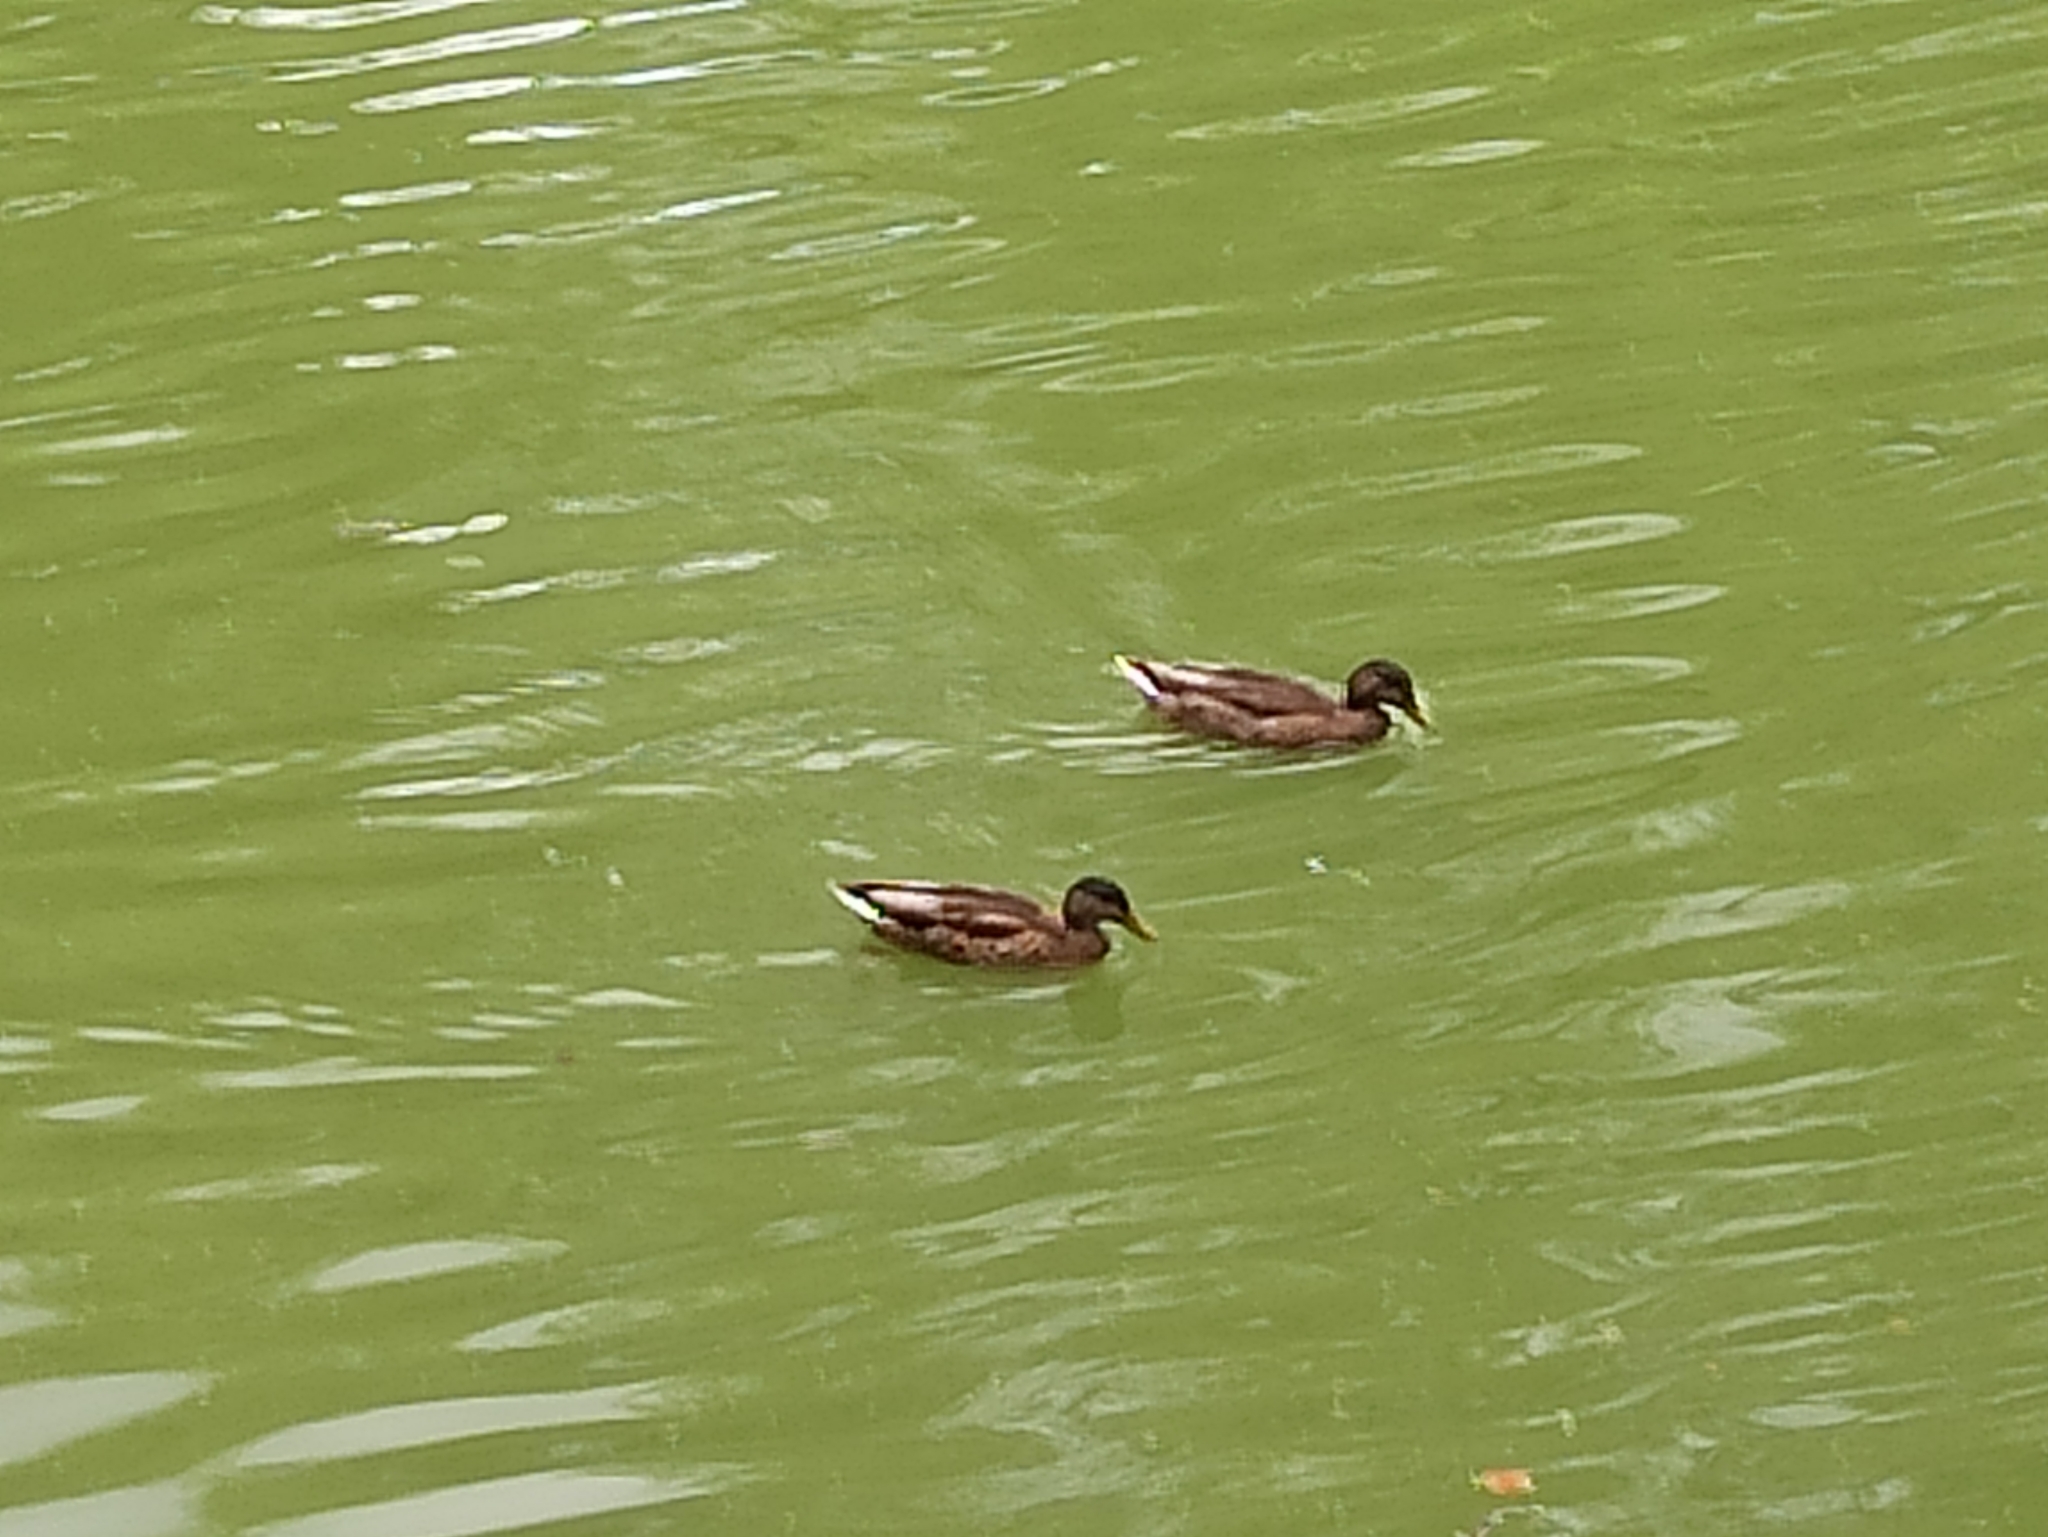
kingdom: Animalia
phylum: Chordata
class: Aves
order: Anseriformes
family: Anatidae
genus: Anas
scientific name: Anas platyrhynchos
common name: Mallard
